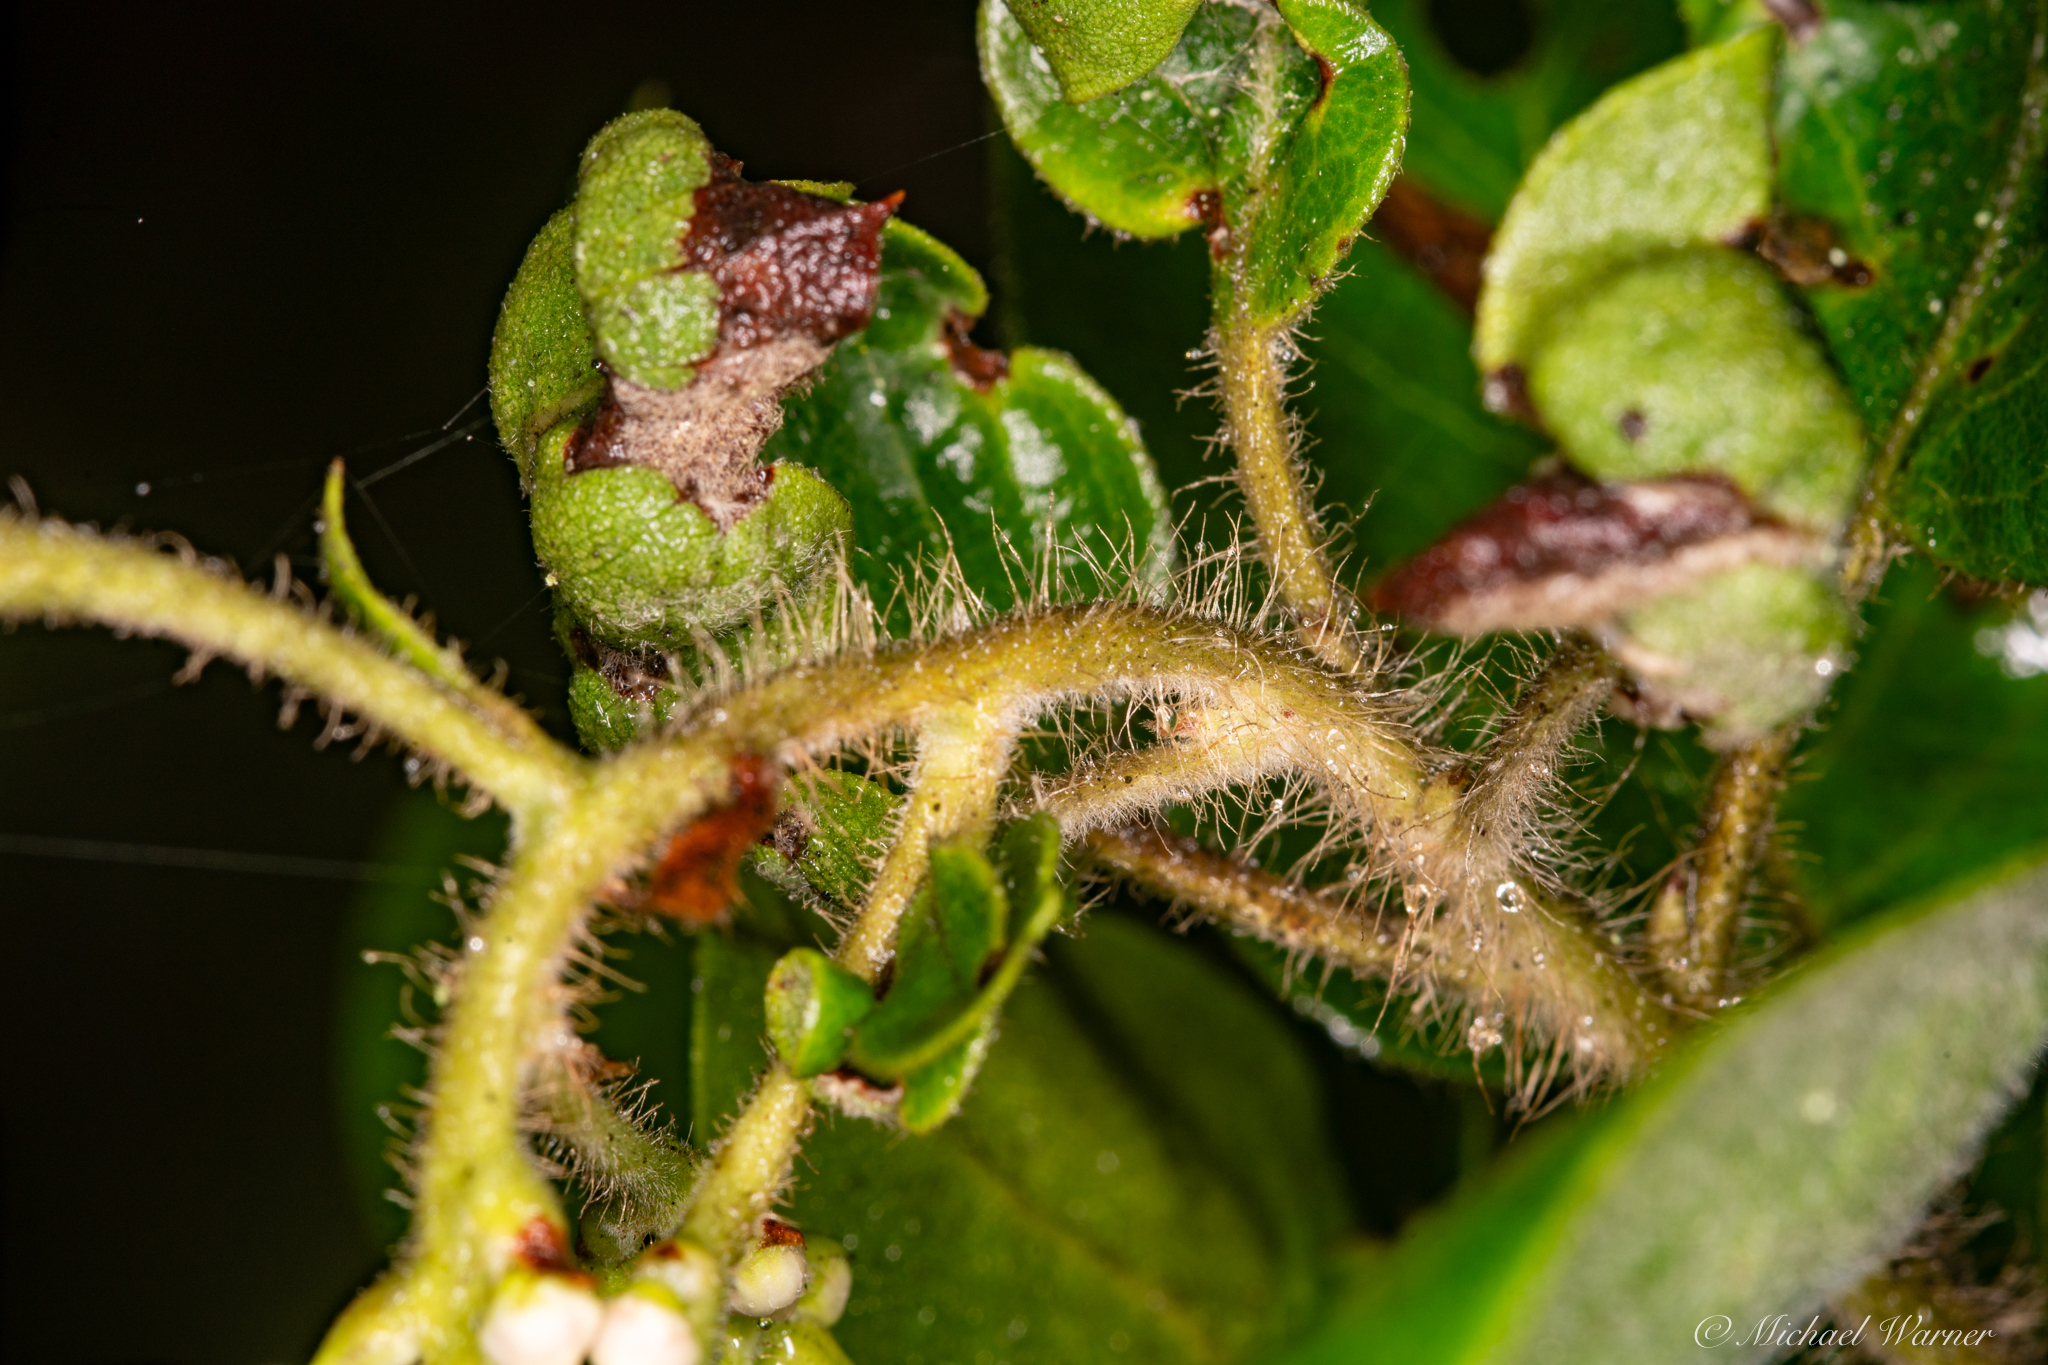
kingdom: Plantae
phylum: Tracheophyta
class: Magnoliopsida
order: Ericales
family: Ericaceae
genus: Arctostaphylos
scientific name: Arctostaphylos crustacea
